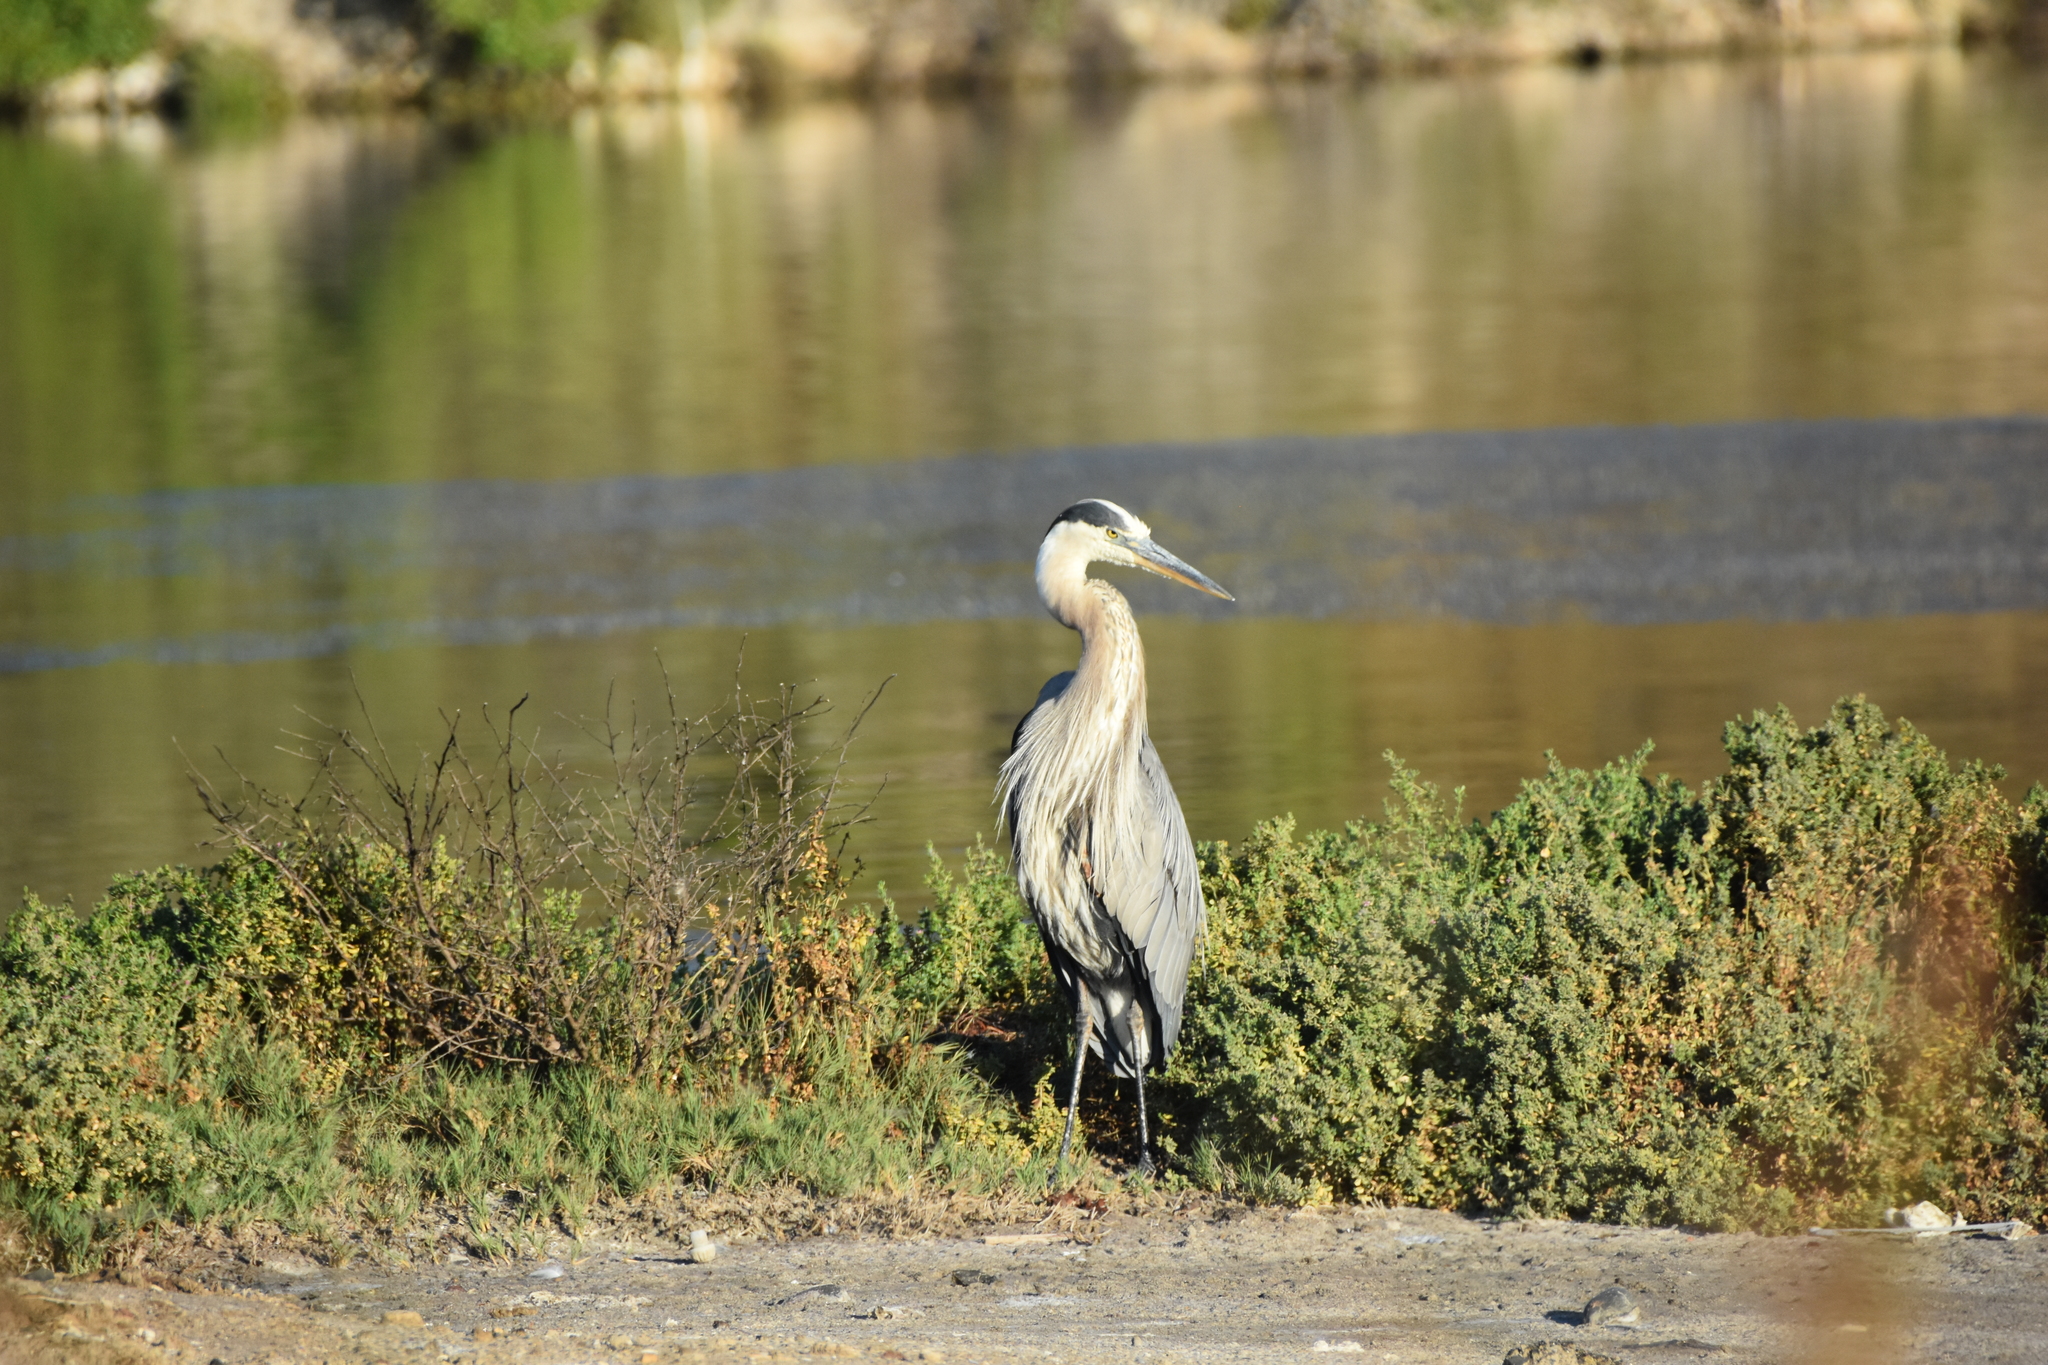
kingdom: Animalia
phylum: Chordata
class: Aves
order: Pelecaniformes
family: Ardeidae
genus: Ardea
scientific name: Ardea herodias
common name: Great blue heron
